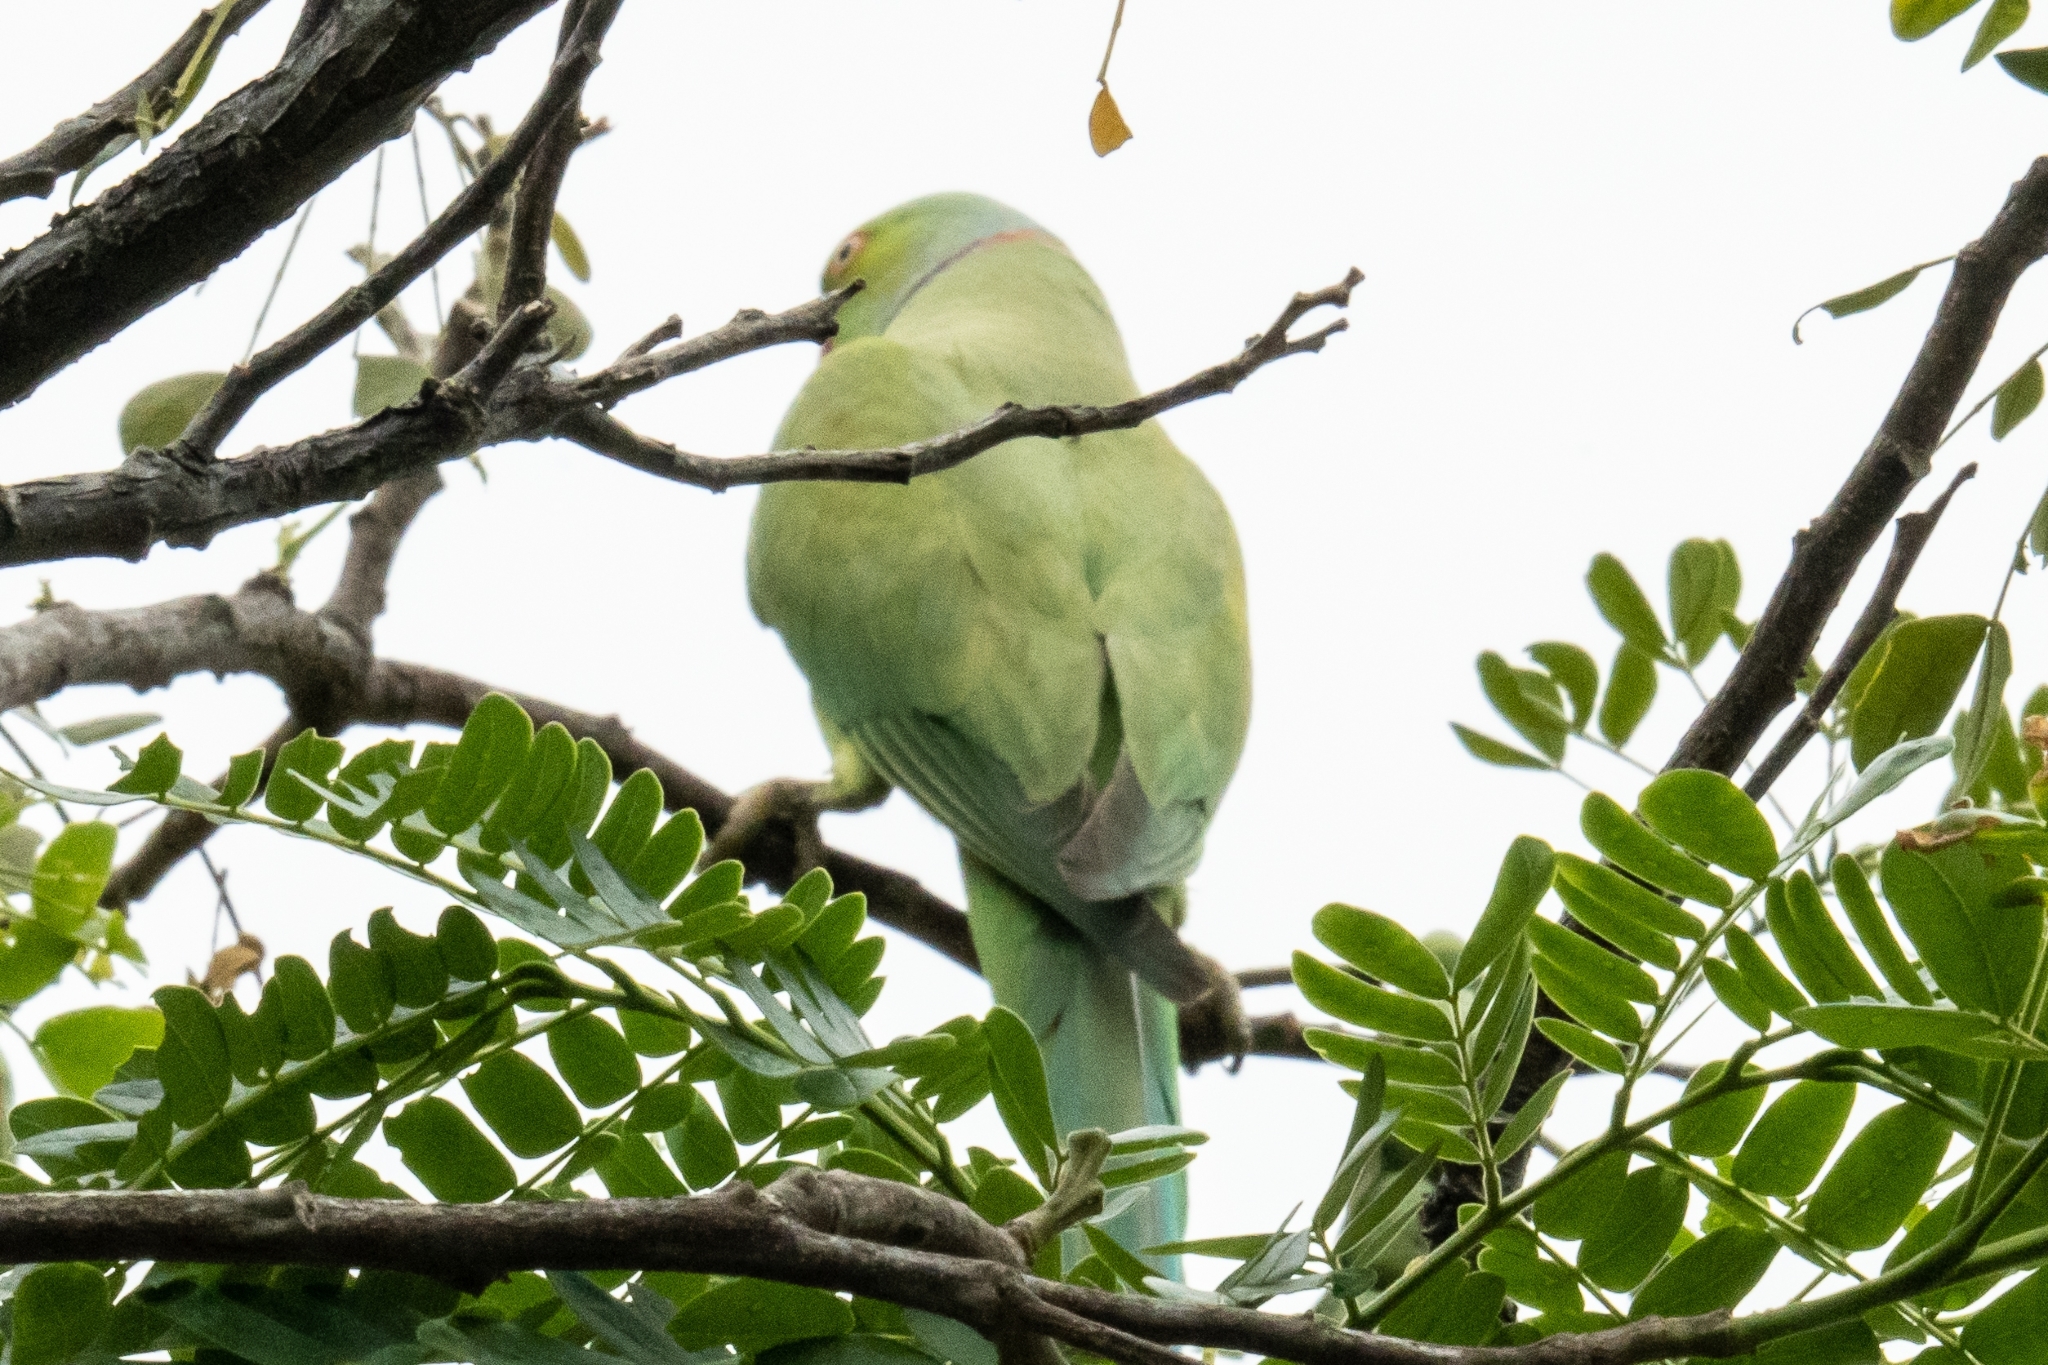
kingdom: Animalia
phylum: Chordata
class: Aves
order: Psittaciformes
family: Psittacidae
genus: Psittacula
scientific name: Psittacula krameri
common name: Rose-ringed parakeet
